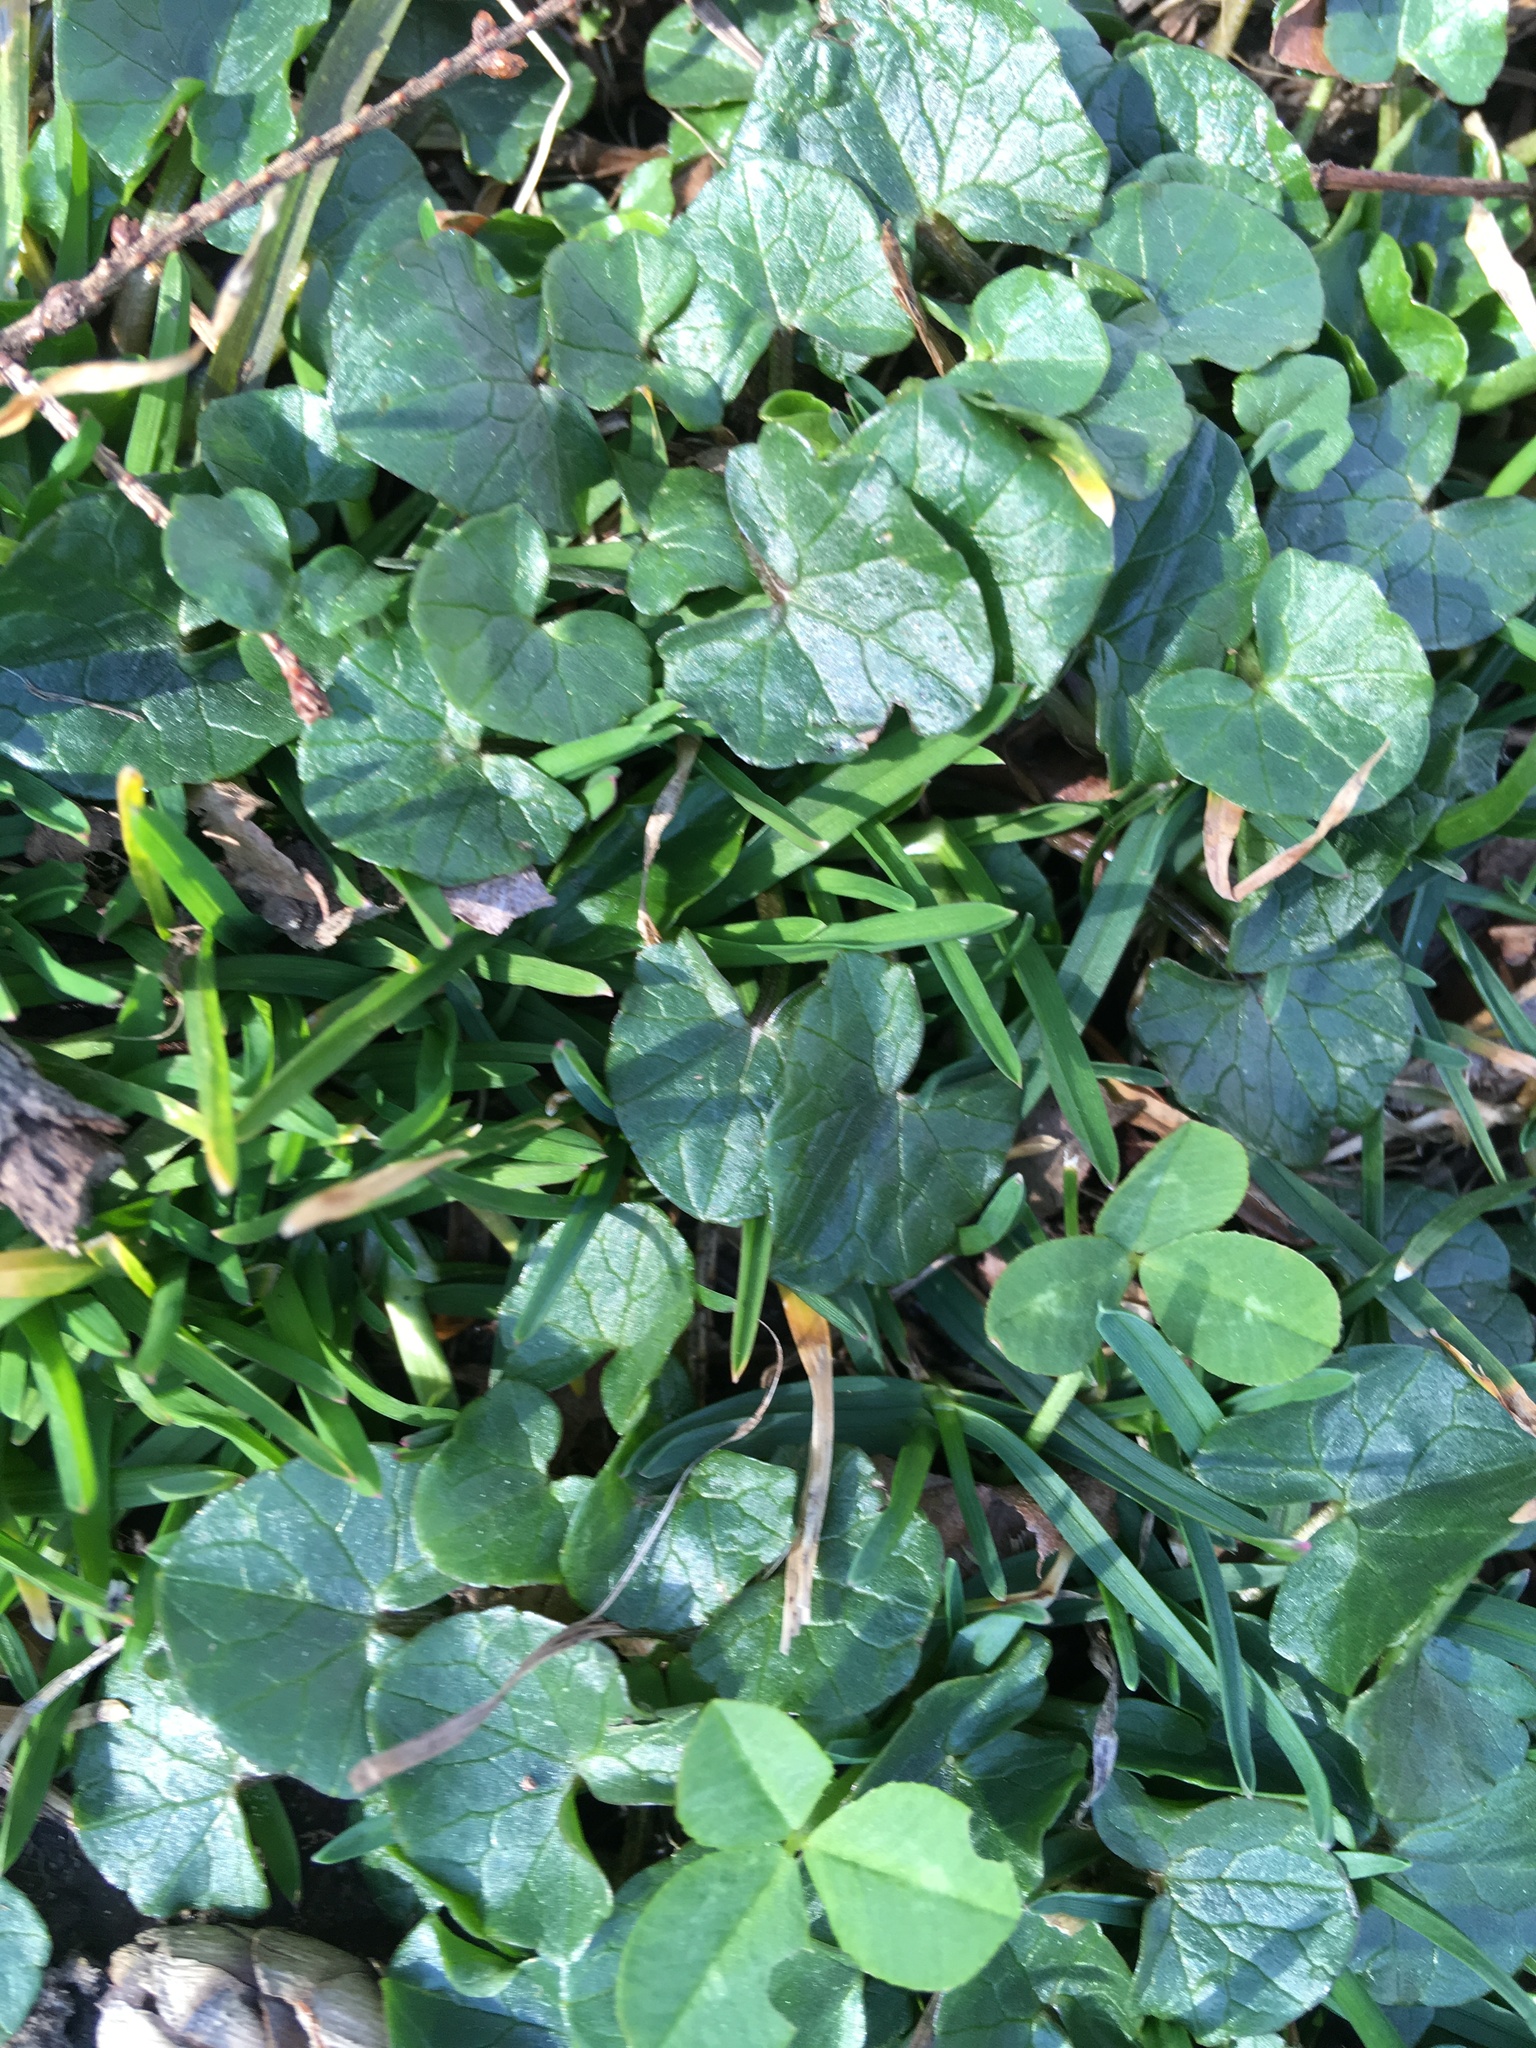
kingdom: Plantae
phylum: Tracheophyta
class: Magnoliopsida
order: Ranunculales
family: Ranunculaceae
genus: Ficaria
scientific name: Ficaria verna
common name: Lesser celandine
